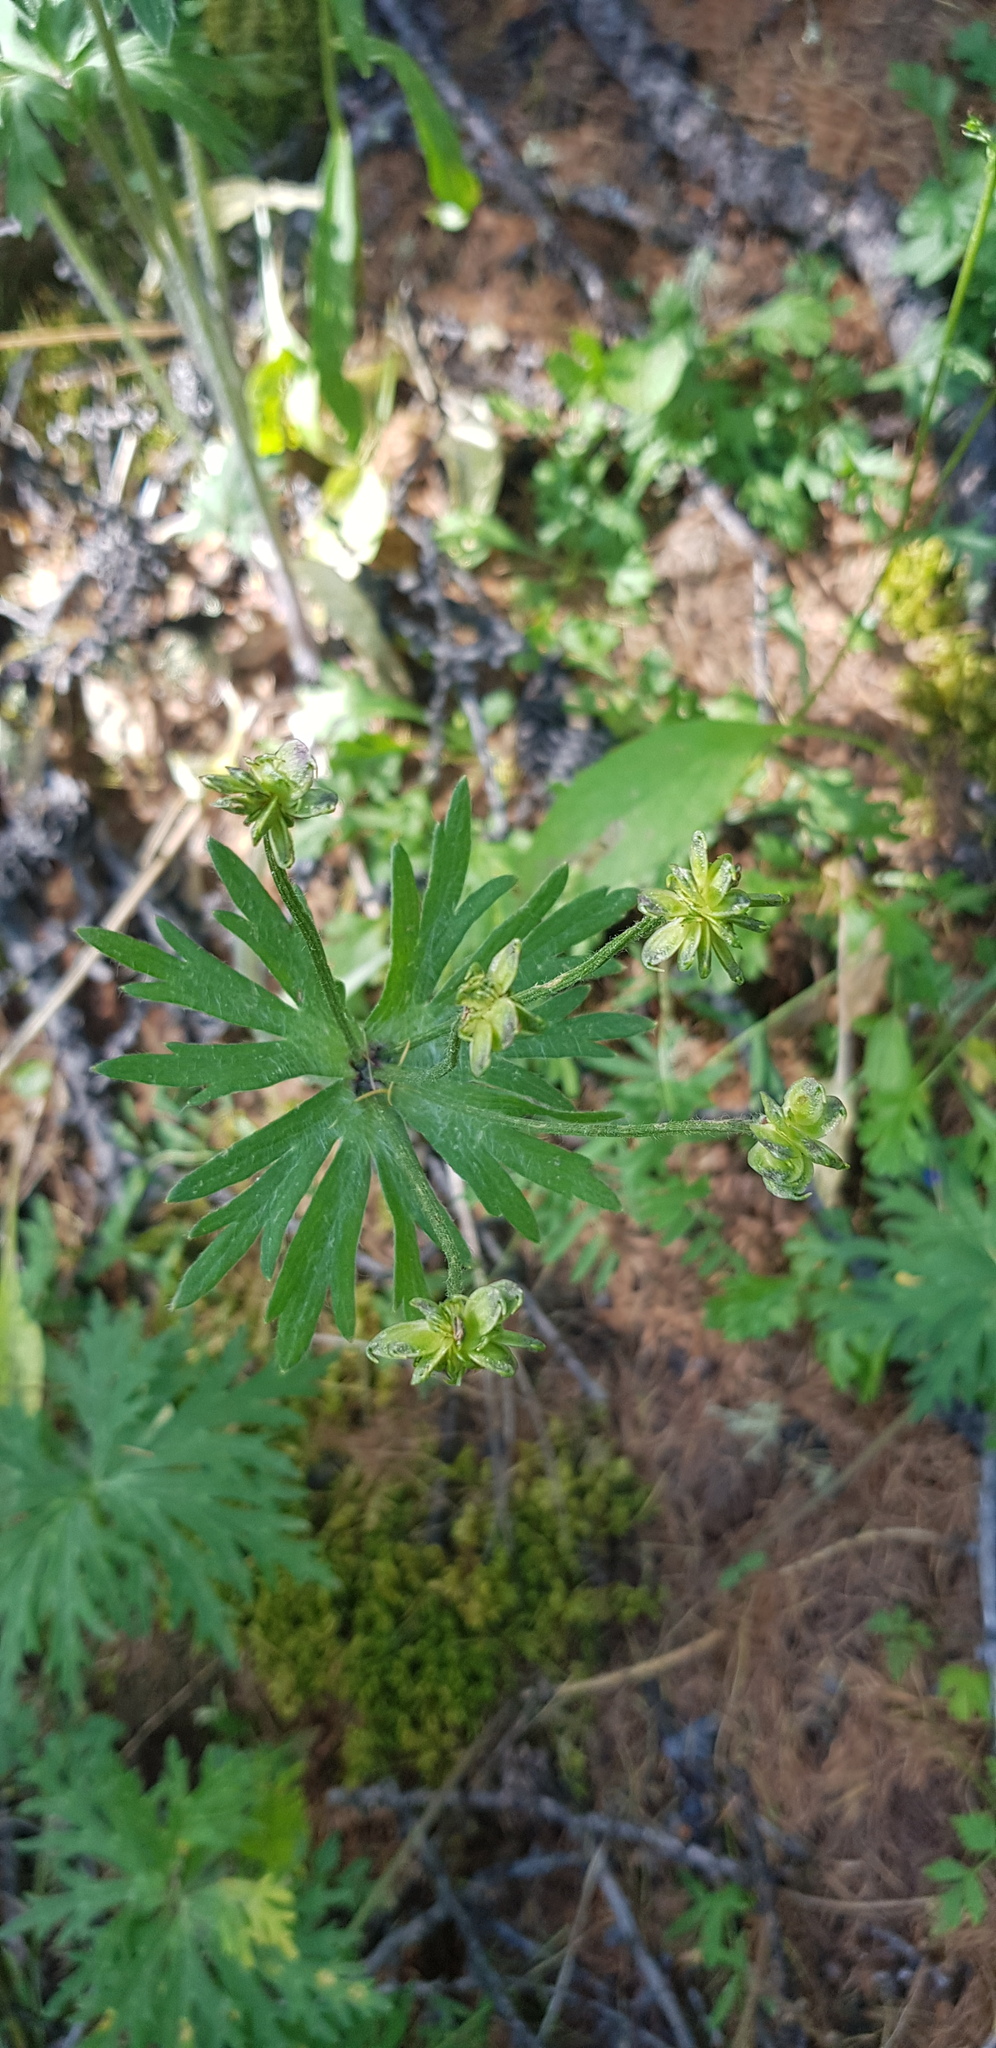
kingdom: Plantae
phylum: Tracheophyta
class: Magnoliopsida
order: Ranunculales
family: Ranunculaceae
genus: Anemonastrum
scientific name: Anemonastrum narcissiflorum
